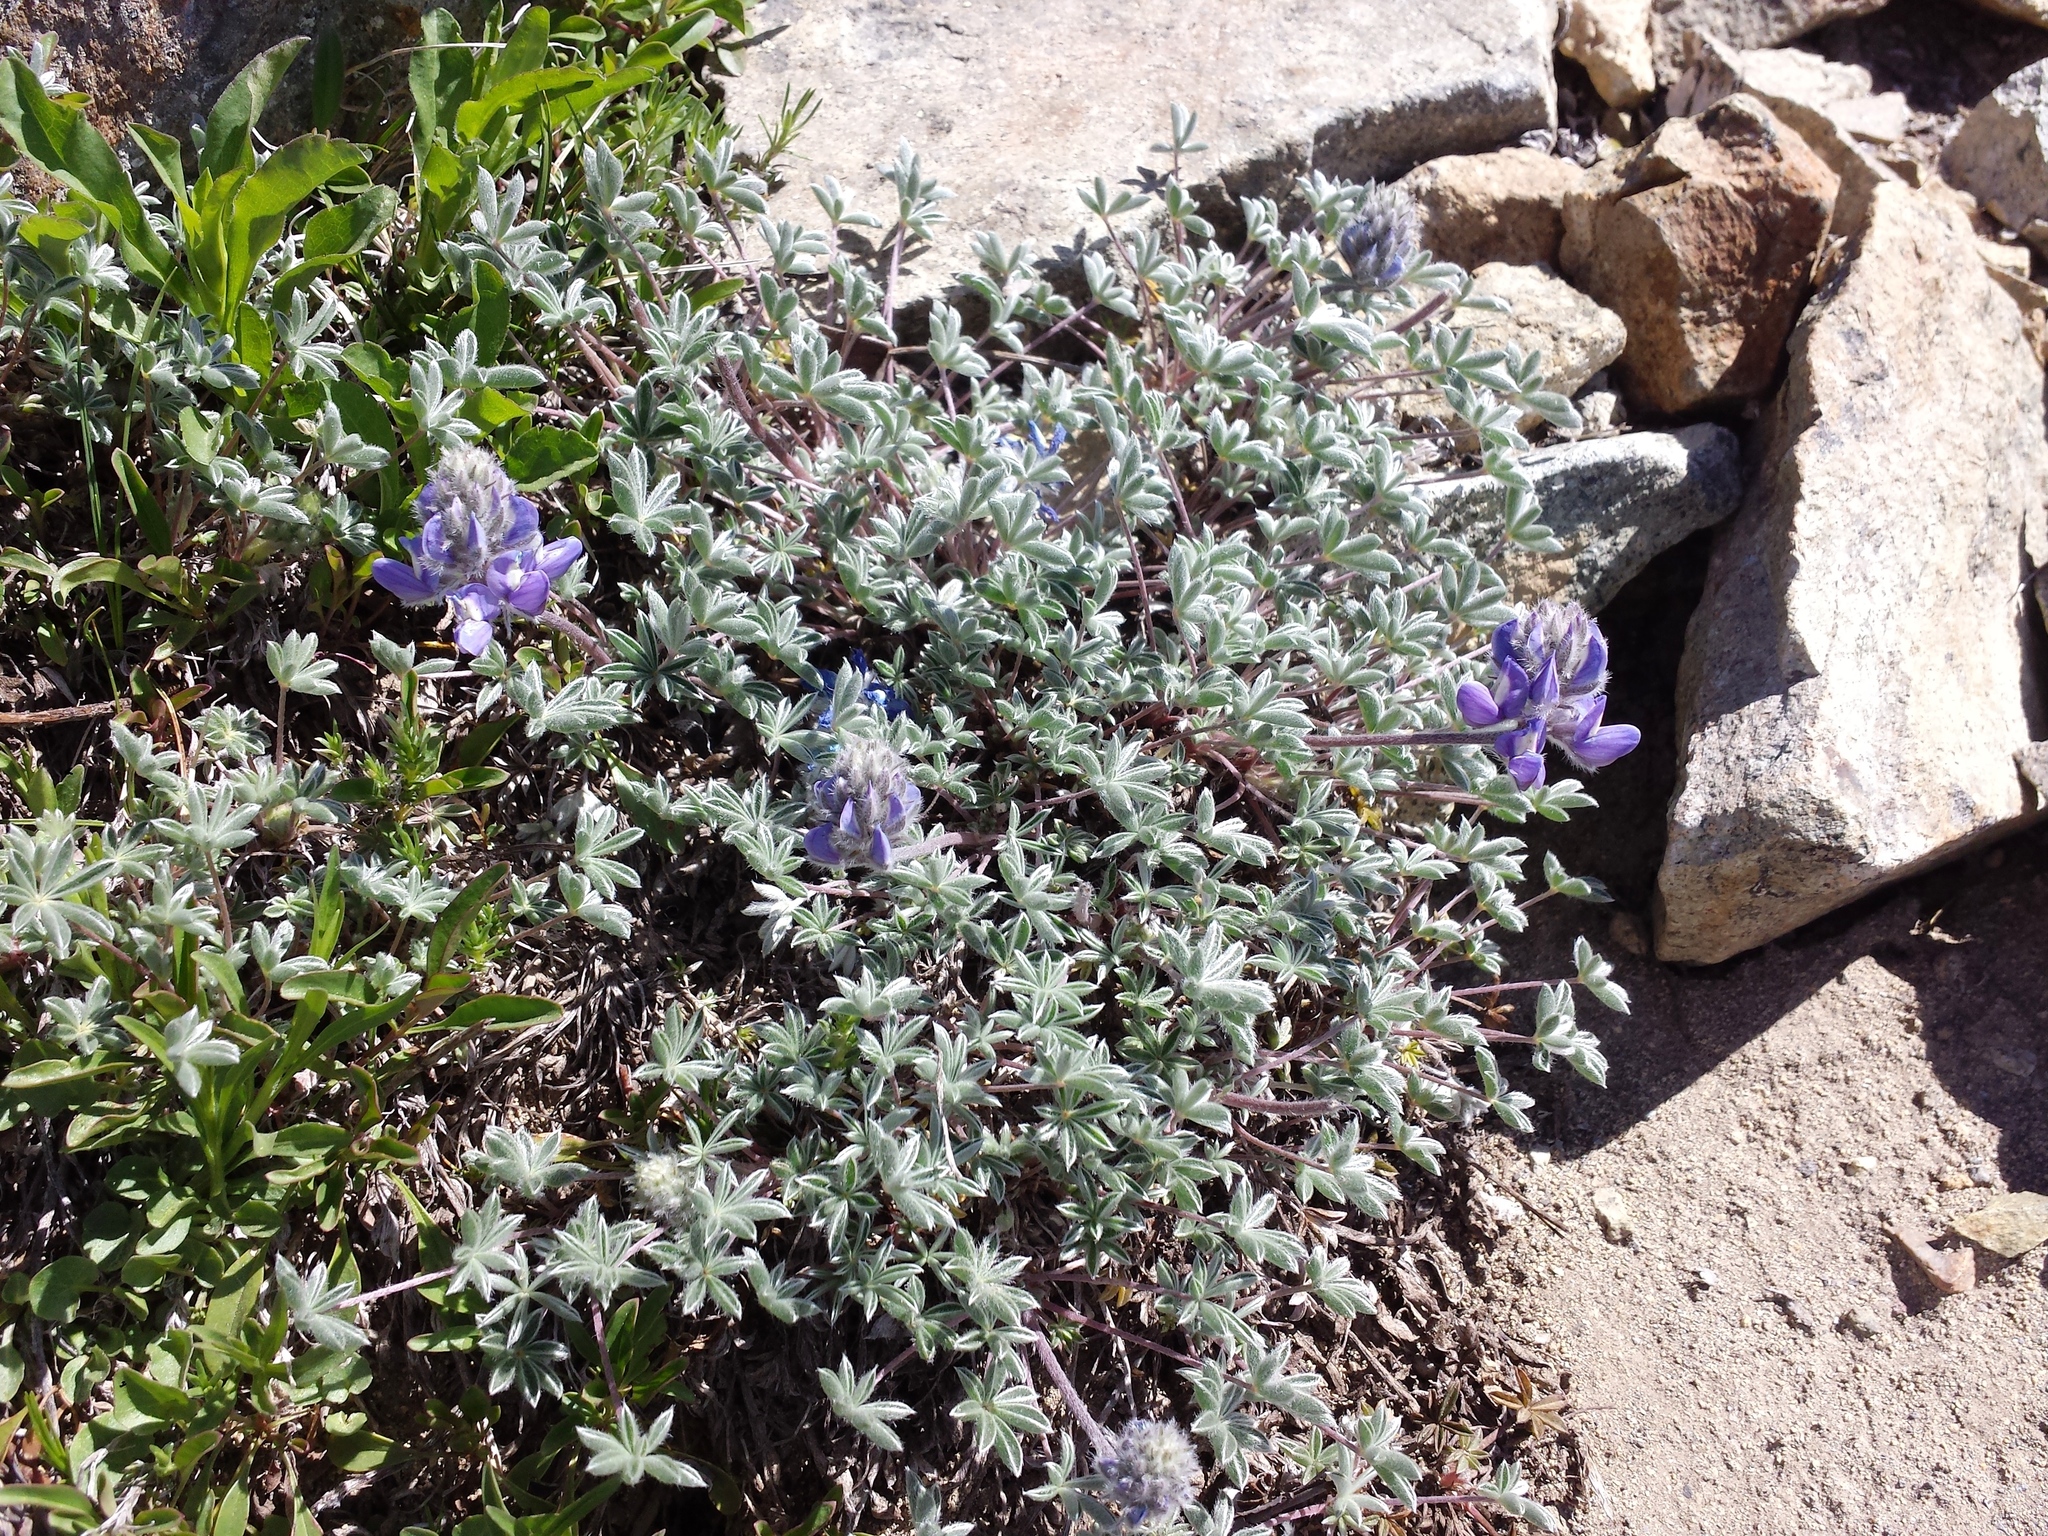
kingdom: Plantae
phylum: Tracheophyta
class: Magnoliopsida
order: Fabales
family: Fabaceae
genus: Lupinus
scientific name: Lupinus sellulus
